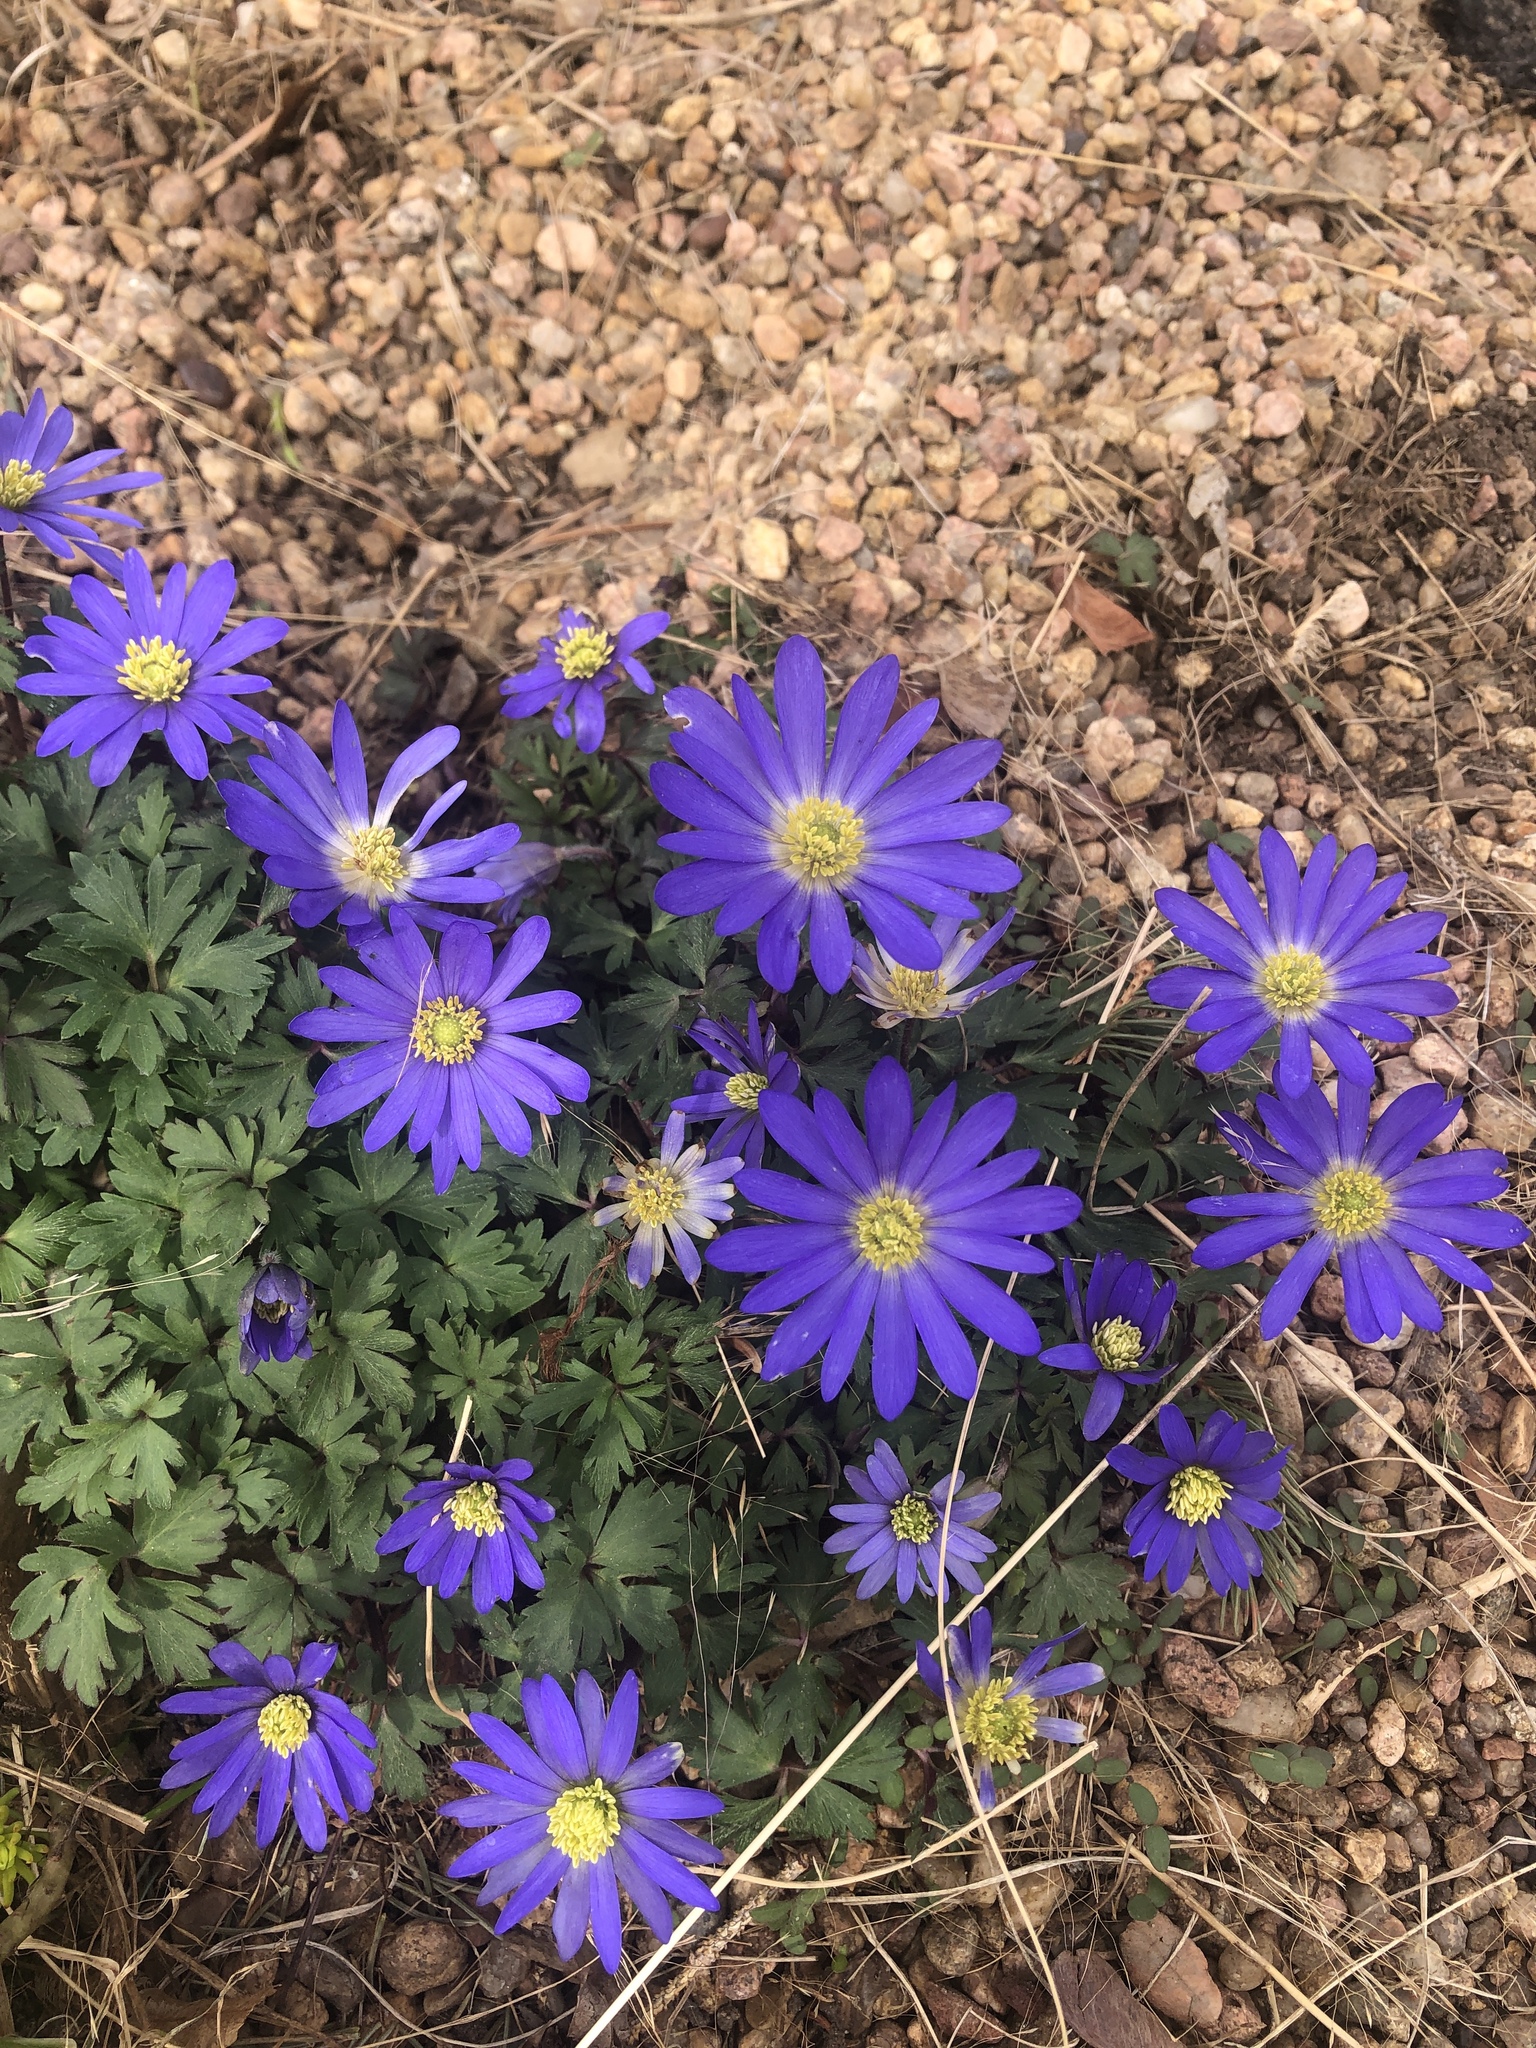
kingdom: Plantae
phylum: Tracheophyta
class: Magnoliopsida
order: Ranunculales
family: Ranunculaceae
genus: Anemone
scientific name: Anemone blanda
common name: Balkan anemone
